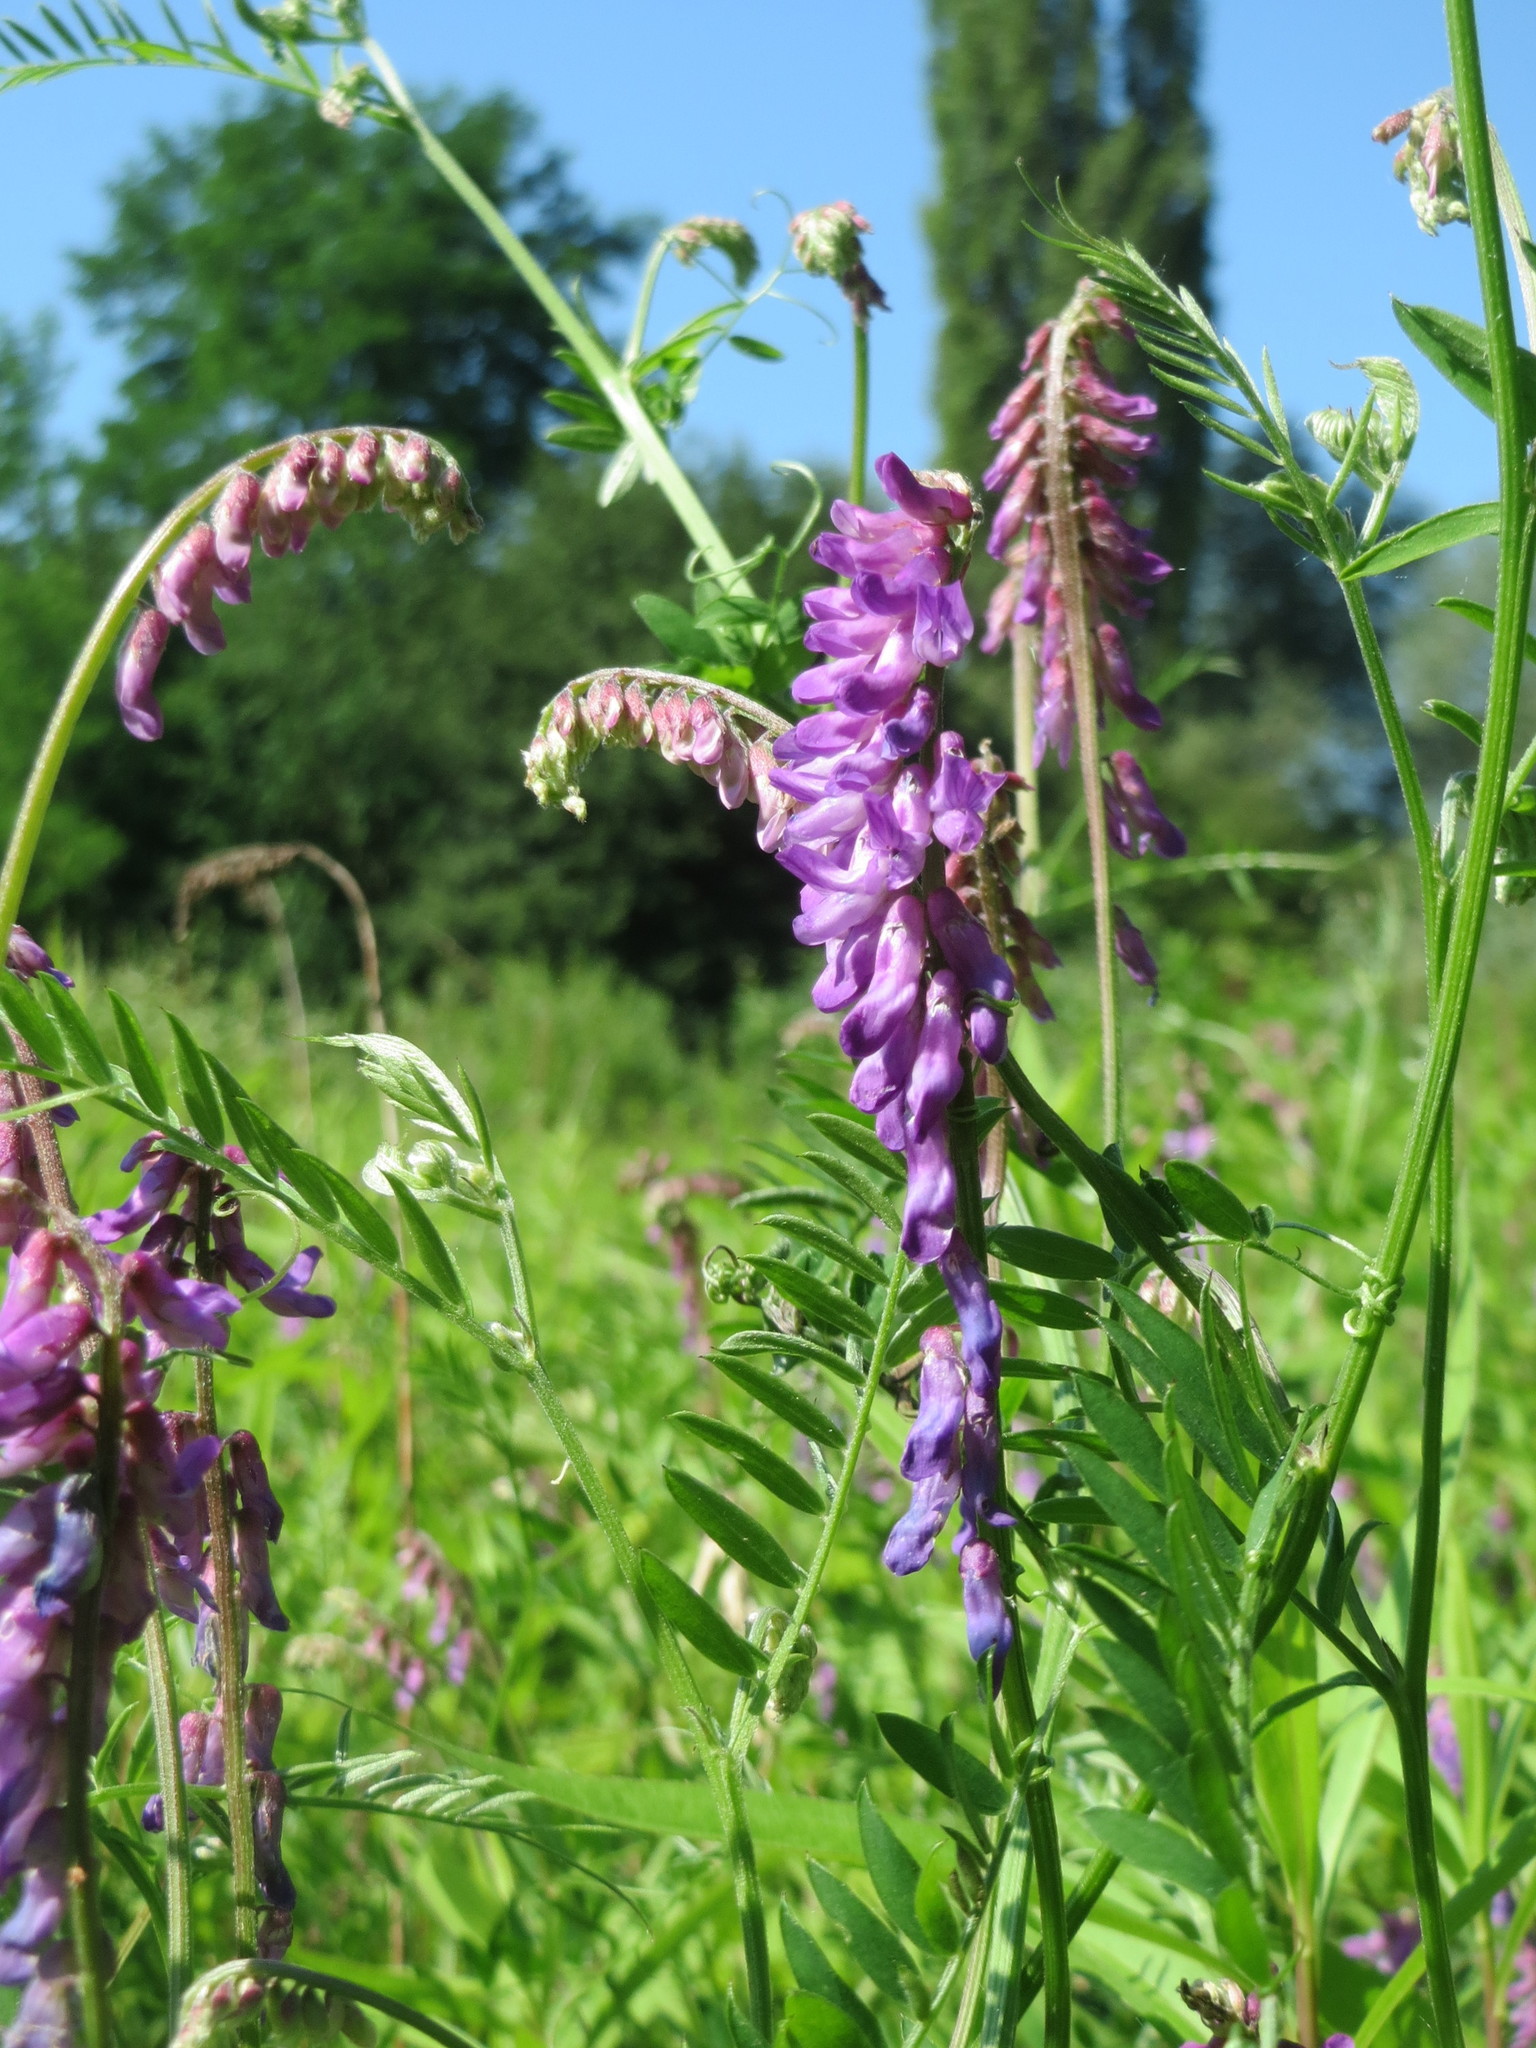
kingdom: Plantae
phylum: Tracheophyta
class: Magnoliopsida
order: Fabales
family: Fabaceae
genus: Vicia
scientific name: Vicia cracca
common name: Bird vetch
